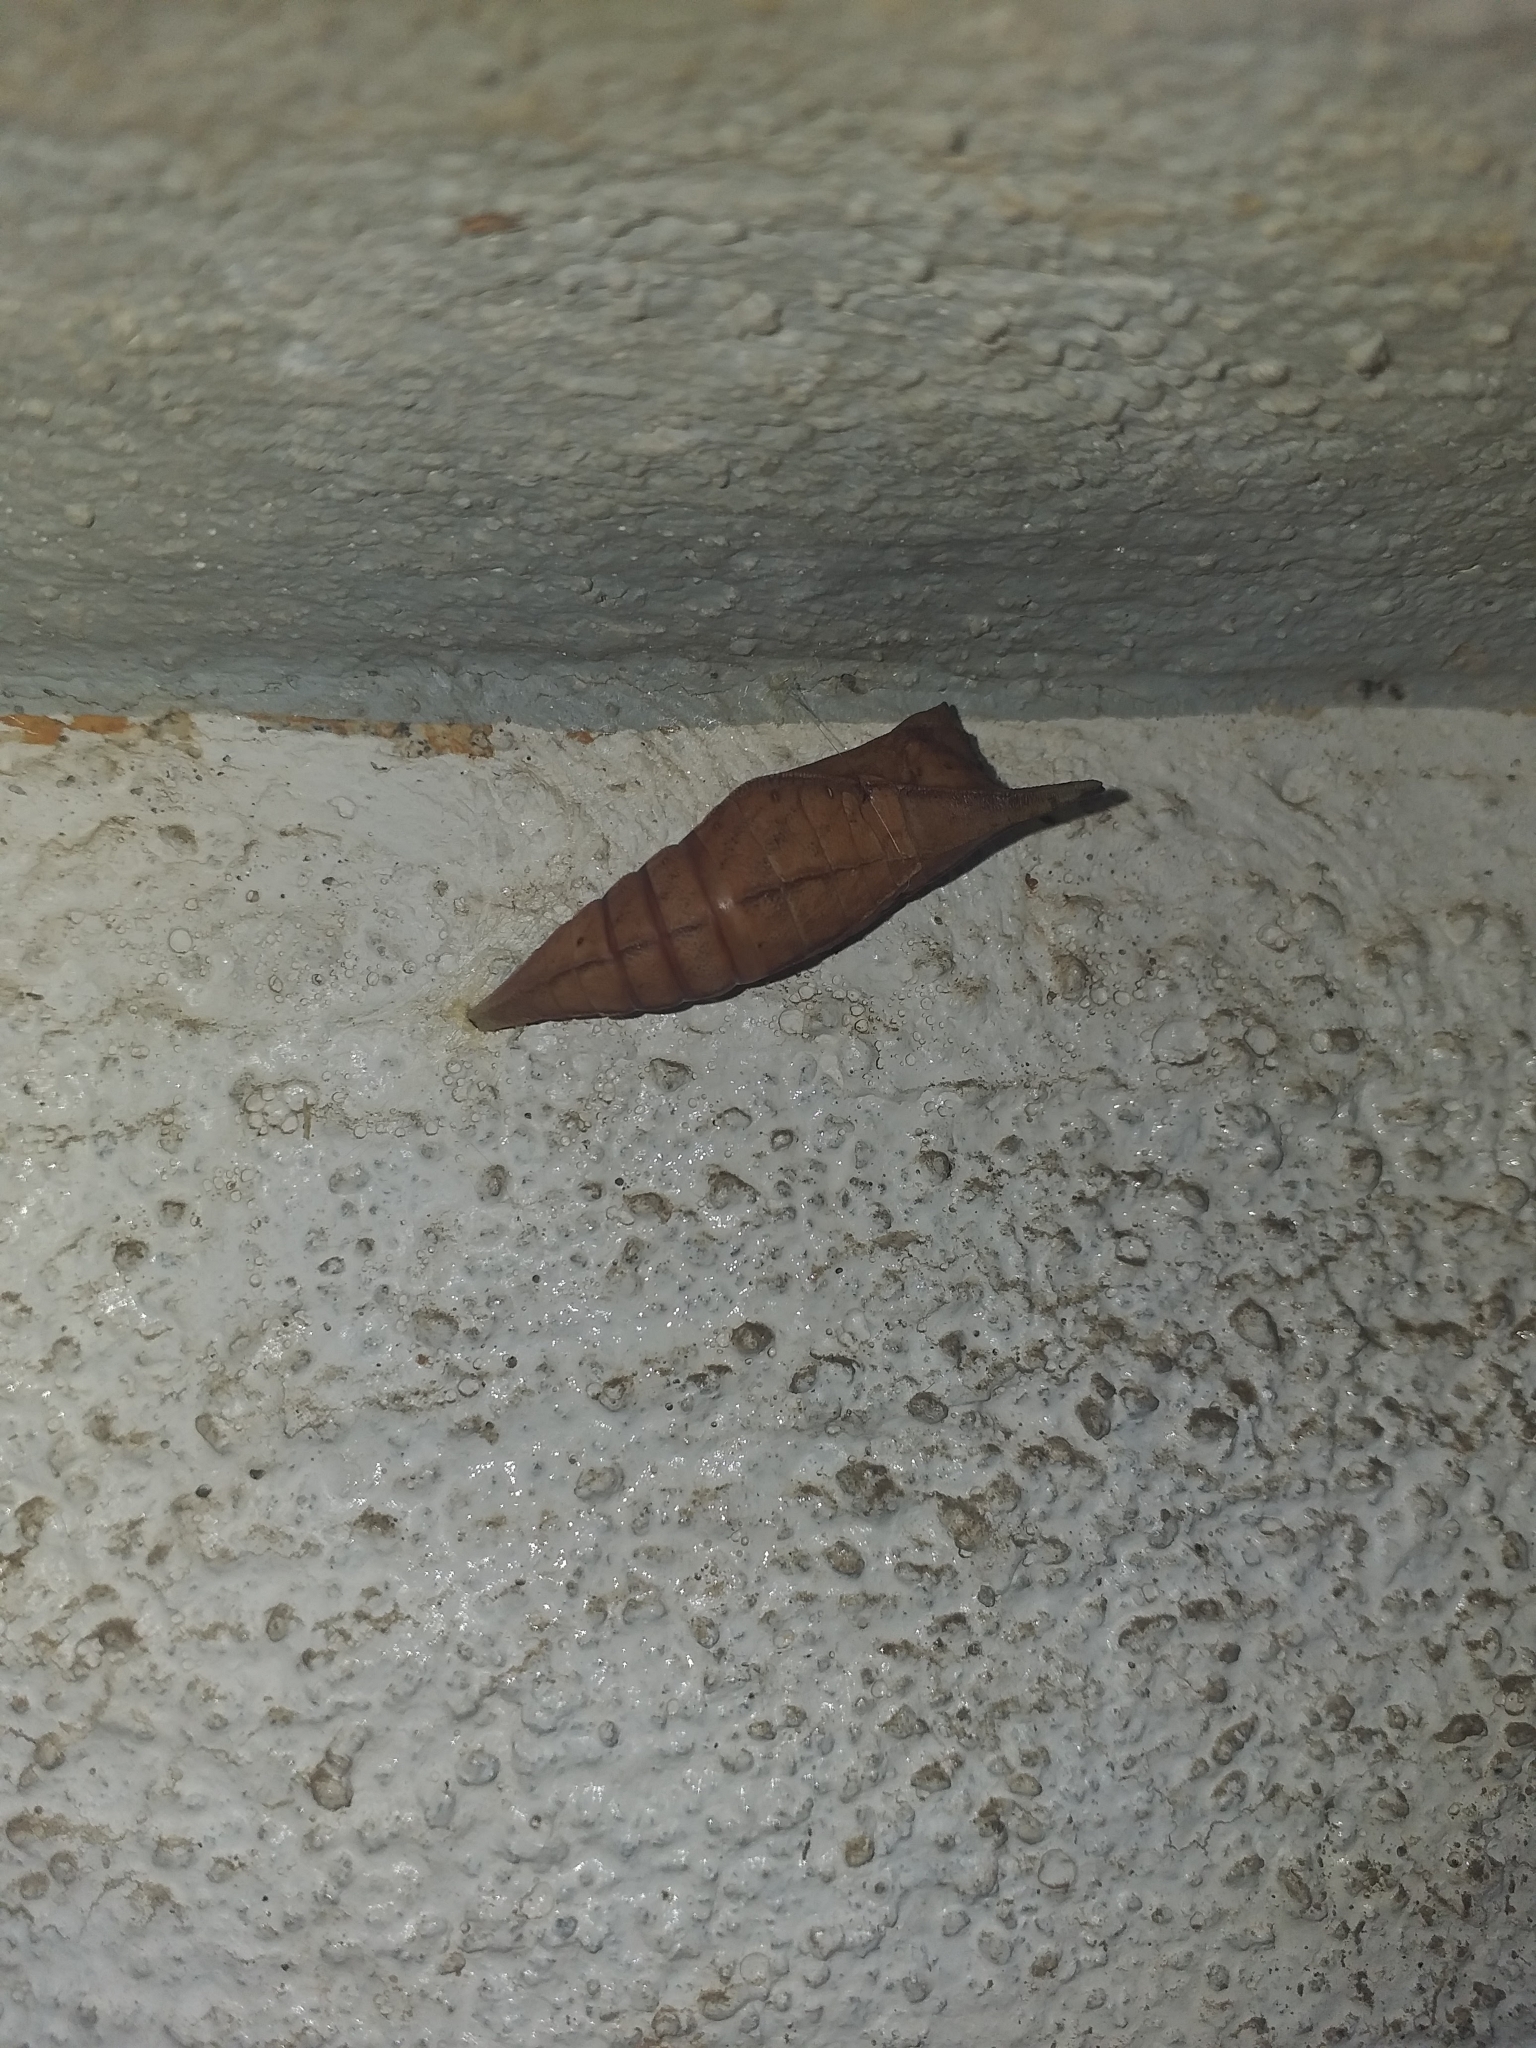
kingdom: Animalia
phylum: Arthropoda
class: Insecta
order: Lepidoptera
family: Papilionidae
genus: Graphium
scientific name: Graphium doson
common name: Common jay
